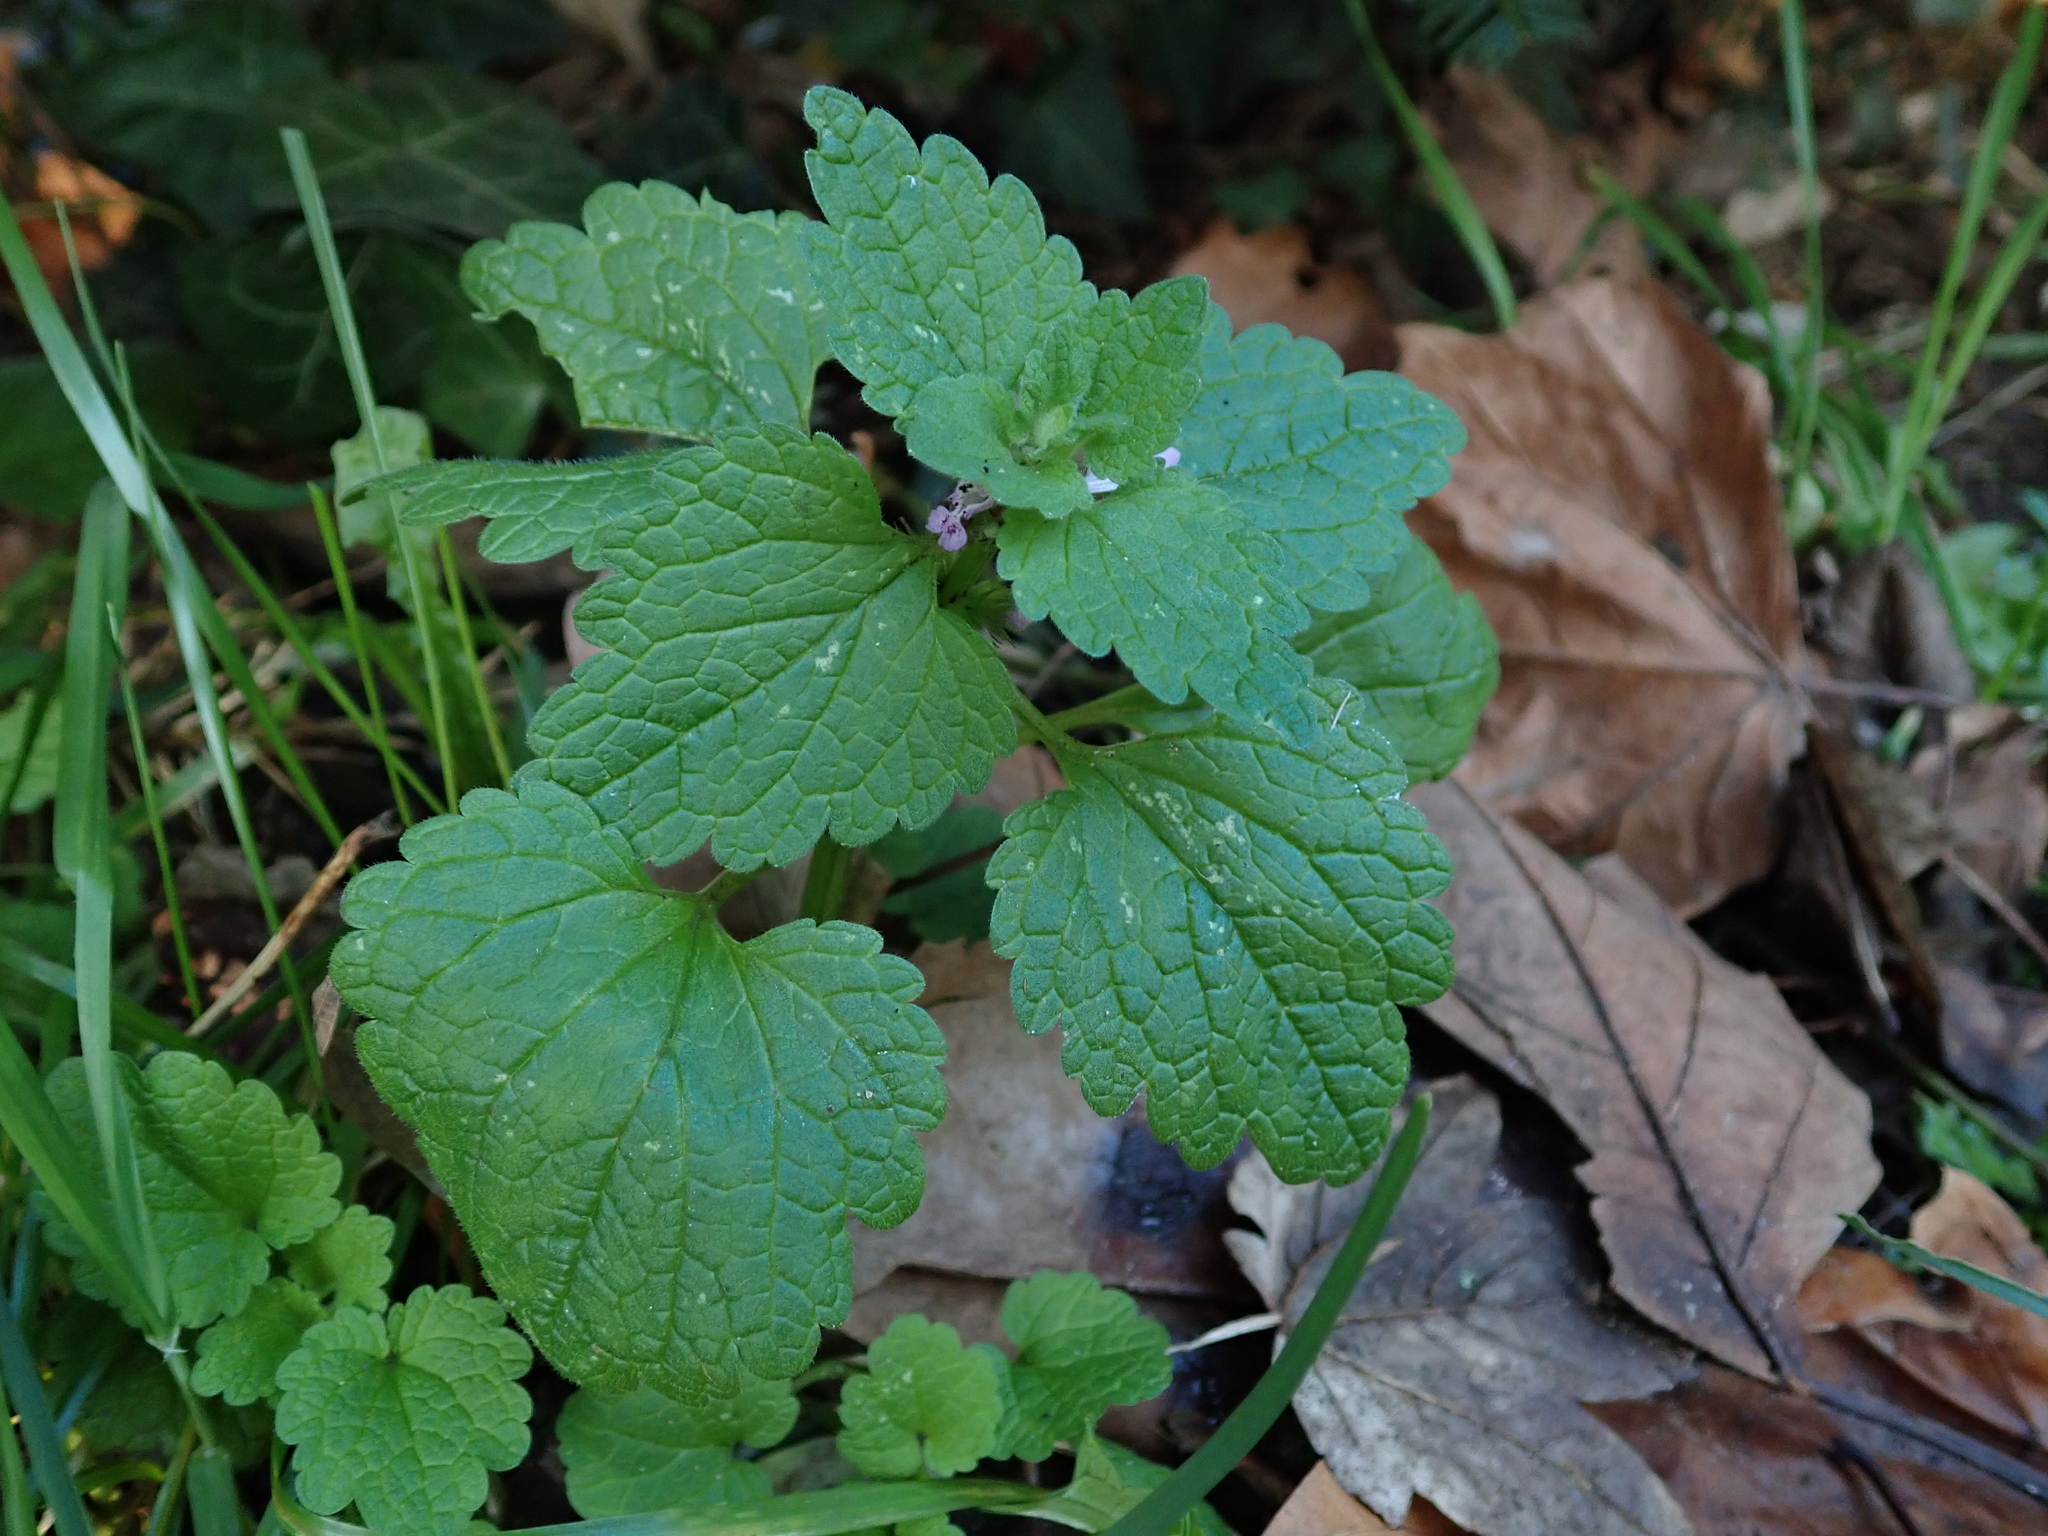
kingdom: Plantae
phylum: Tracheophyta
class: Magnoliopsida
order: Lamiales
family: Lamiaceae
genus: Lamium
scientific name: Lamium purpureum
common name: Red dead-nettle
